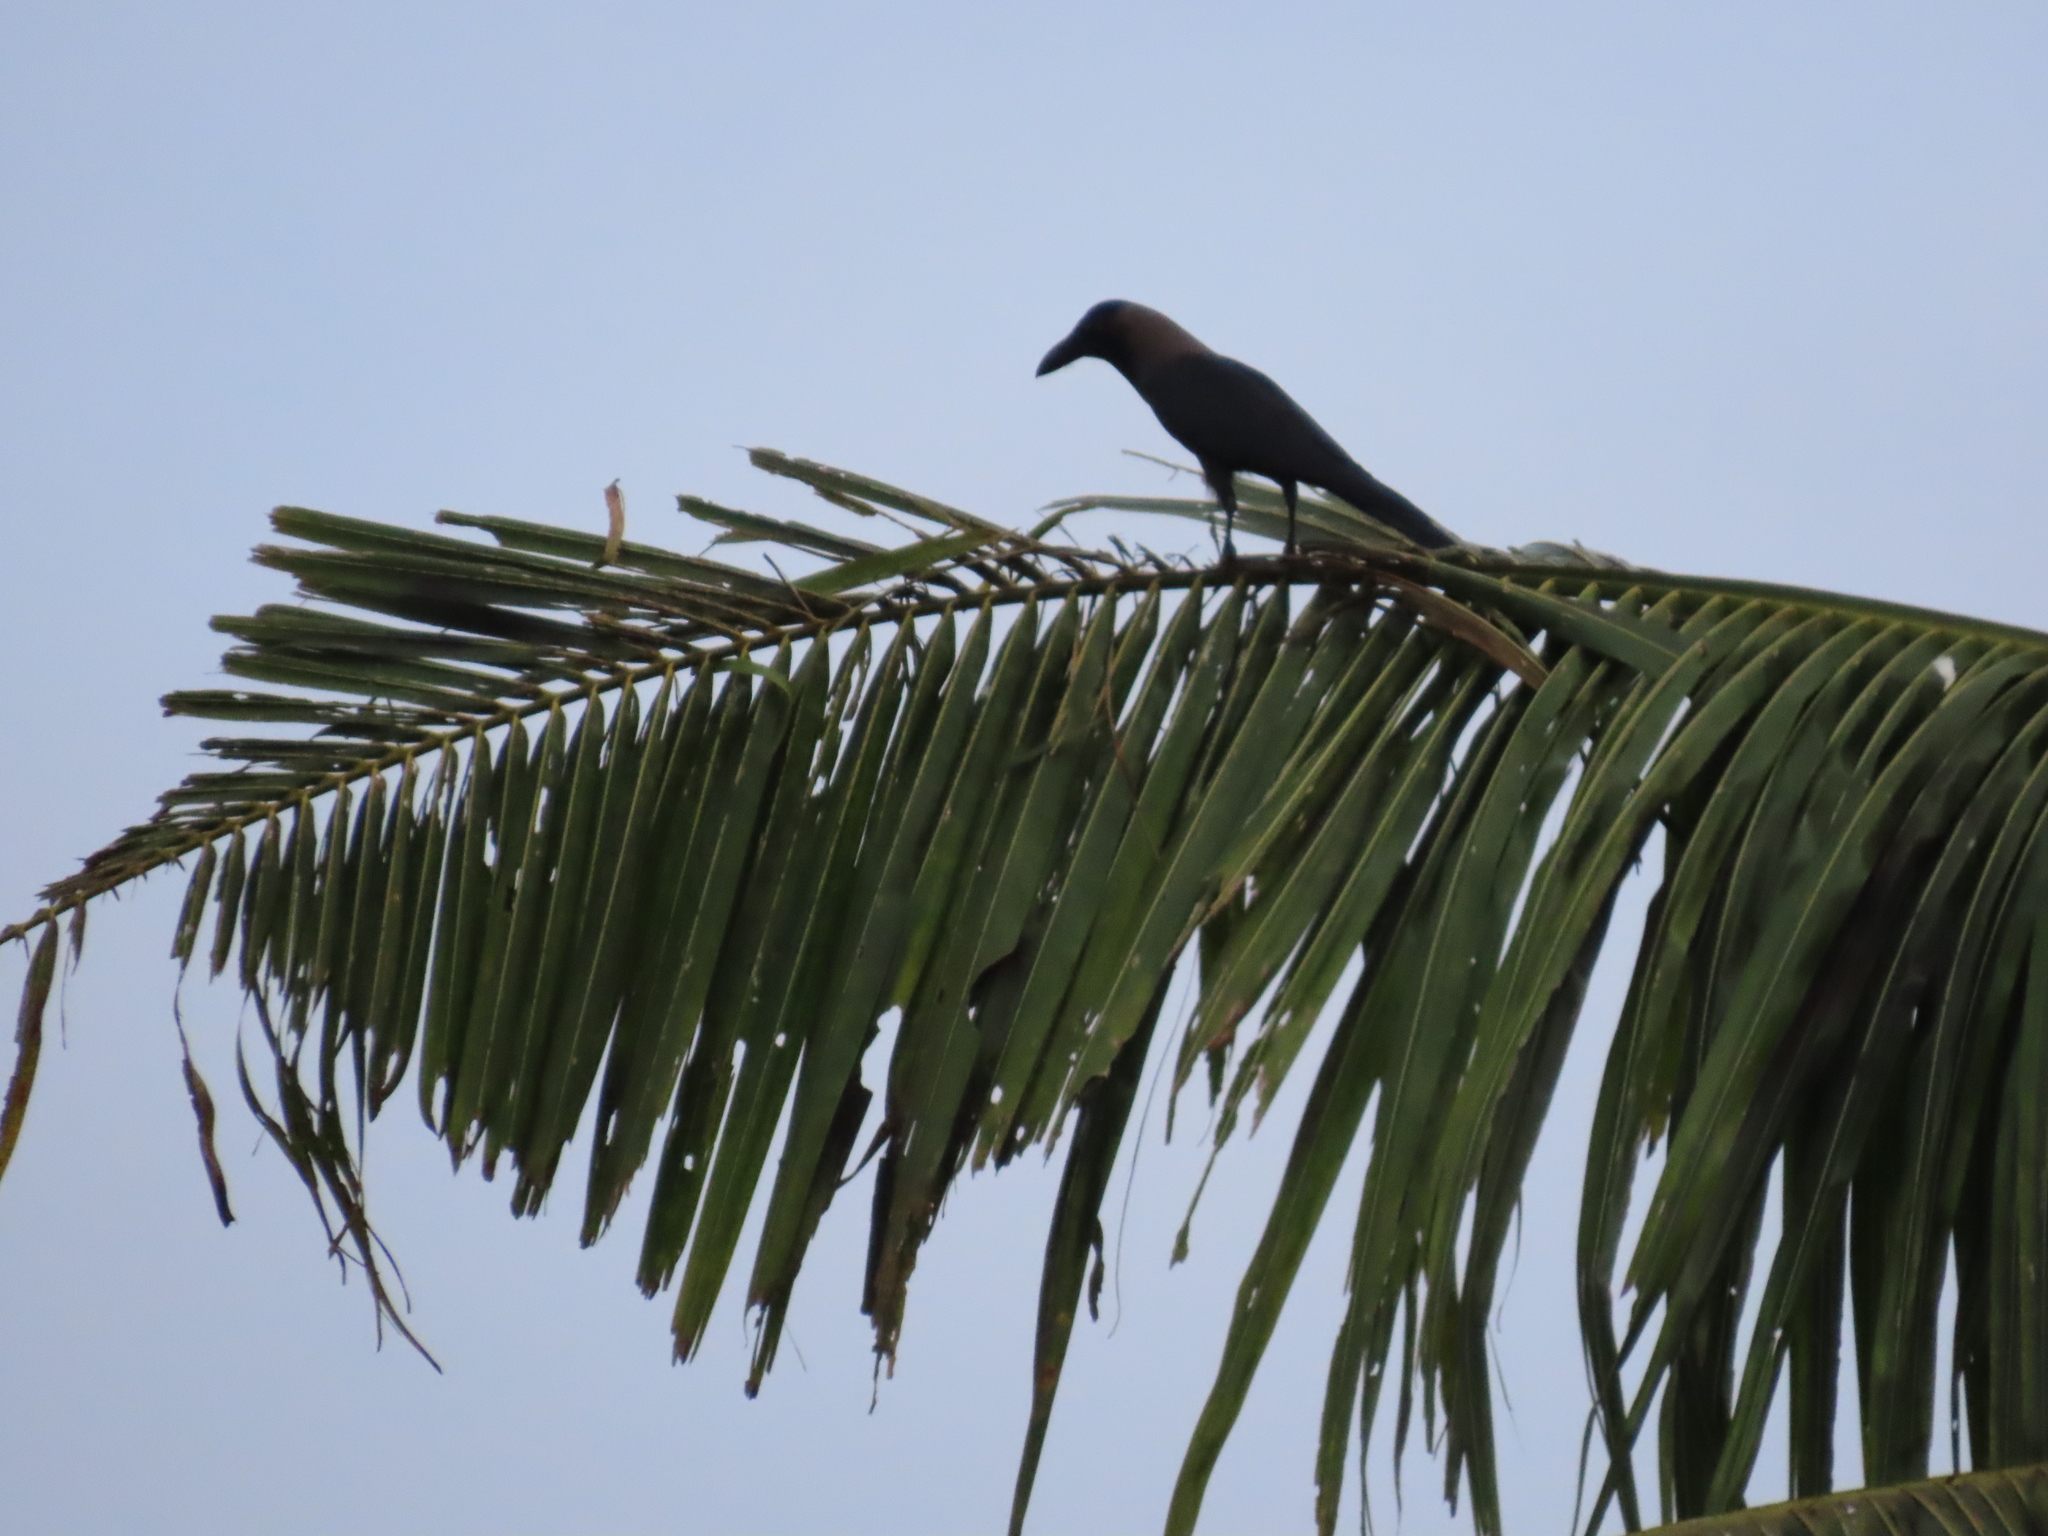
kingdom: Animalia
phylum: Chordata
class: Aves
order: Passeriformes
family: Corvidae
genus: Corvus
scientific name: Corvus splendens
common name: House crow
